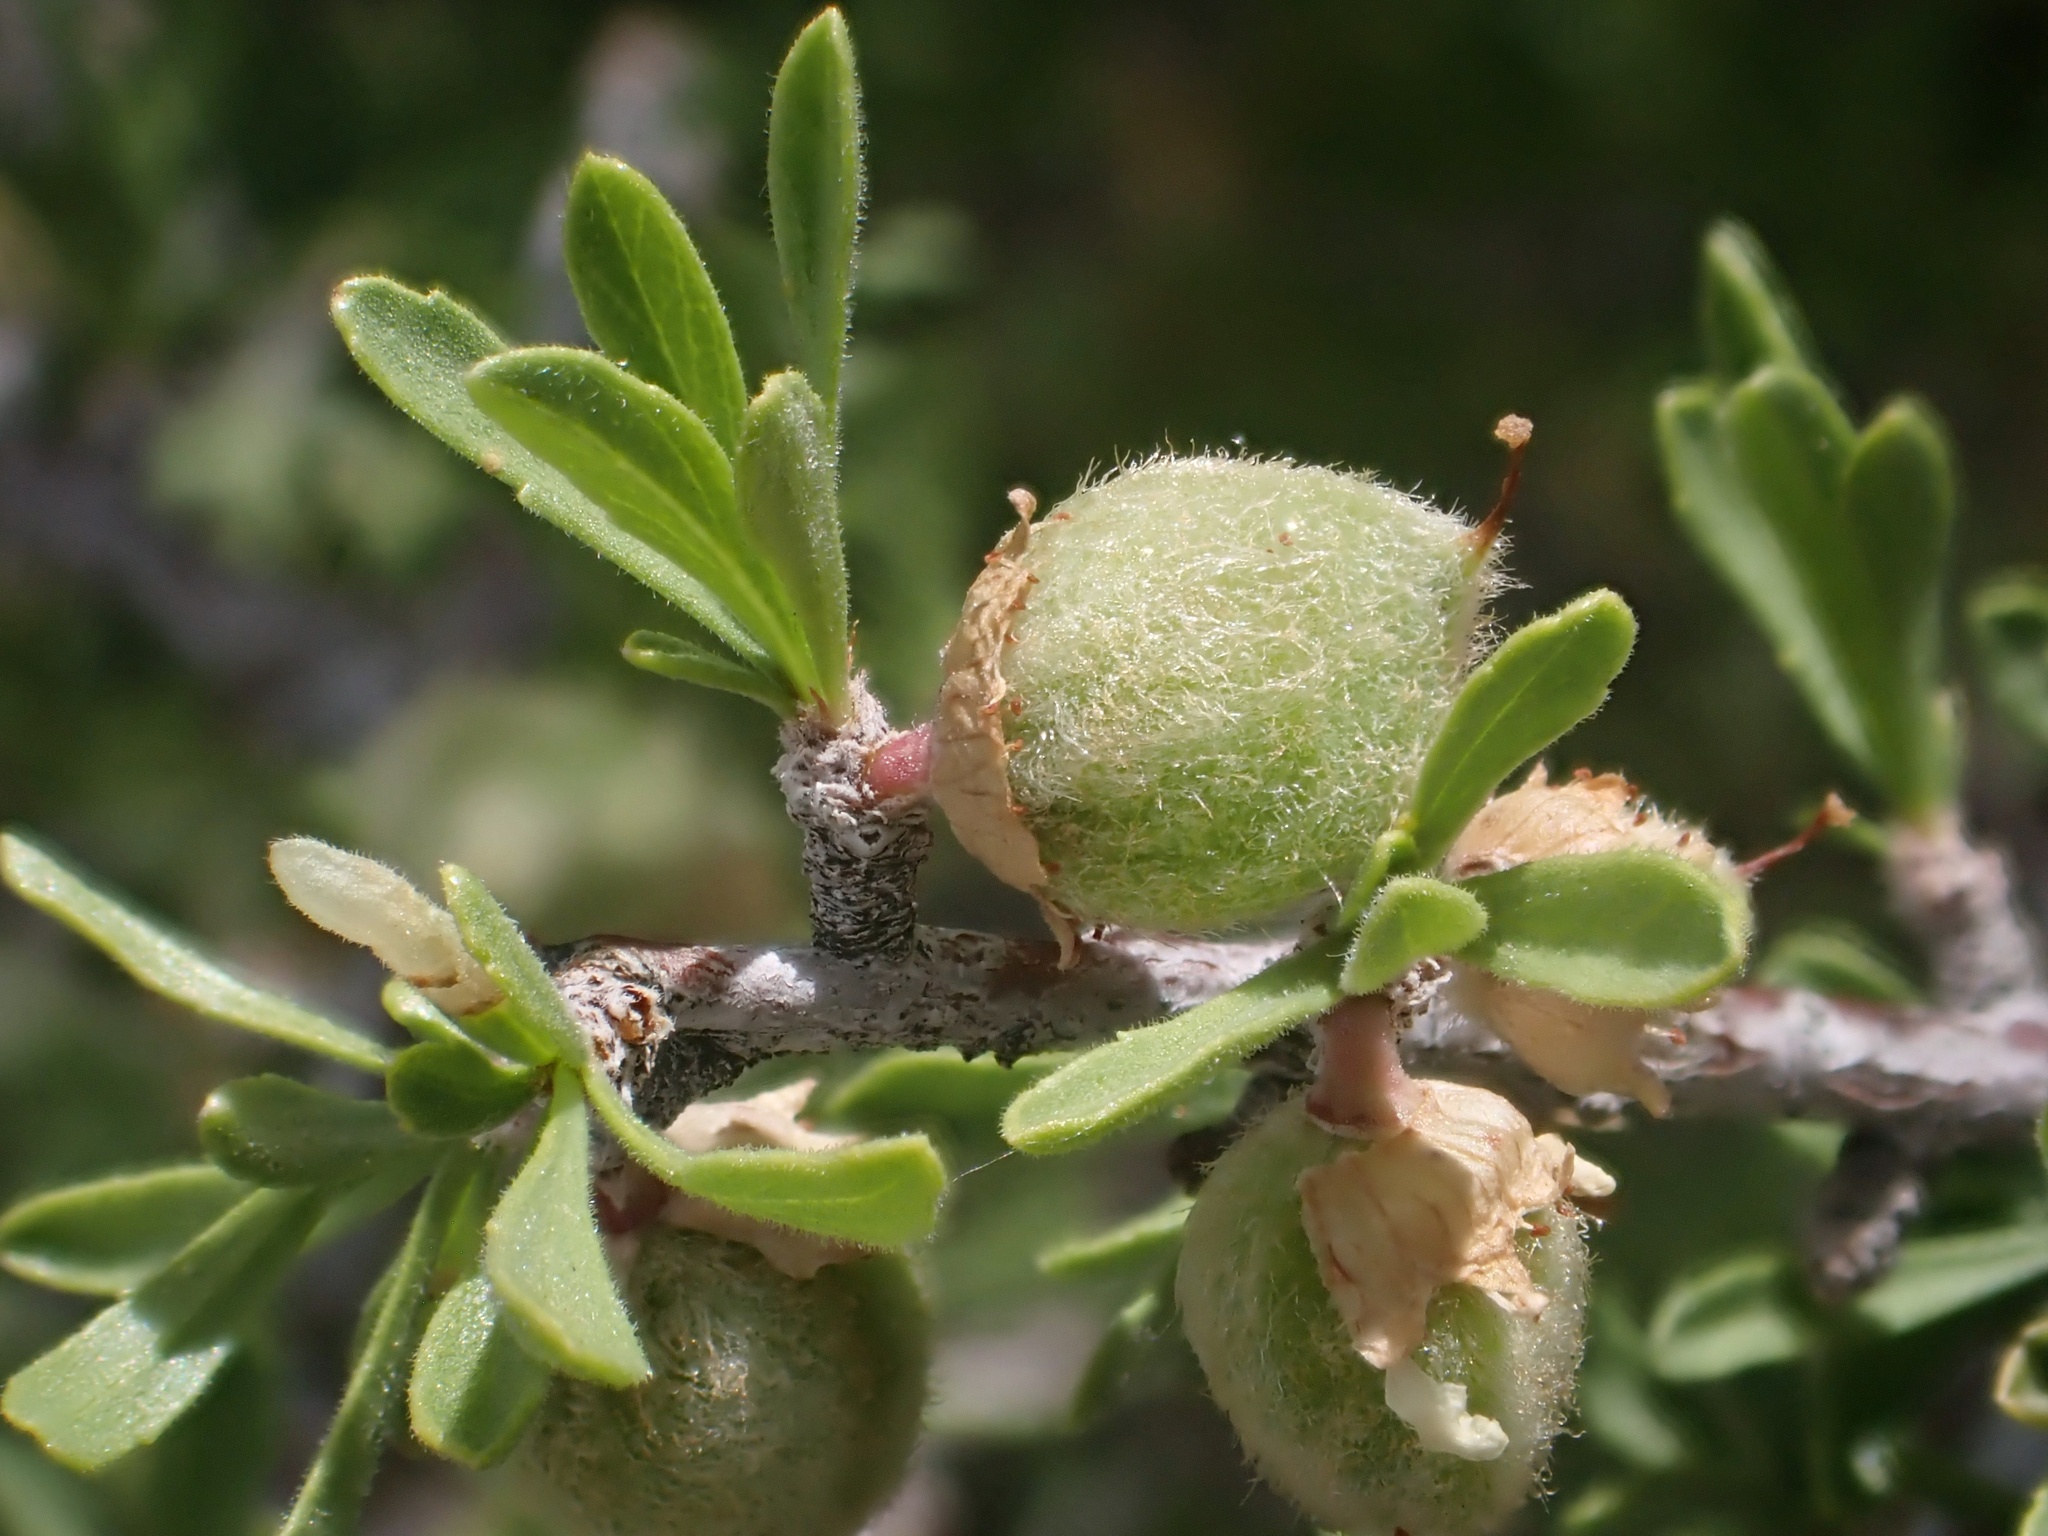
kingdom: Plantae
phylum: Tracheophyta
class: Magnoliopsida
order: Rosales
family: Rosaceae
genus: Prunus
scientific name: Prunus fasciculata
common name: Desert almond
